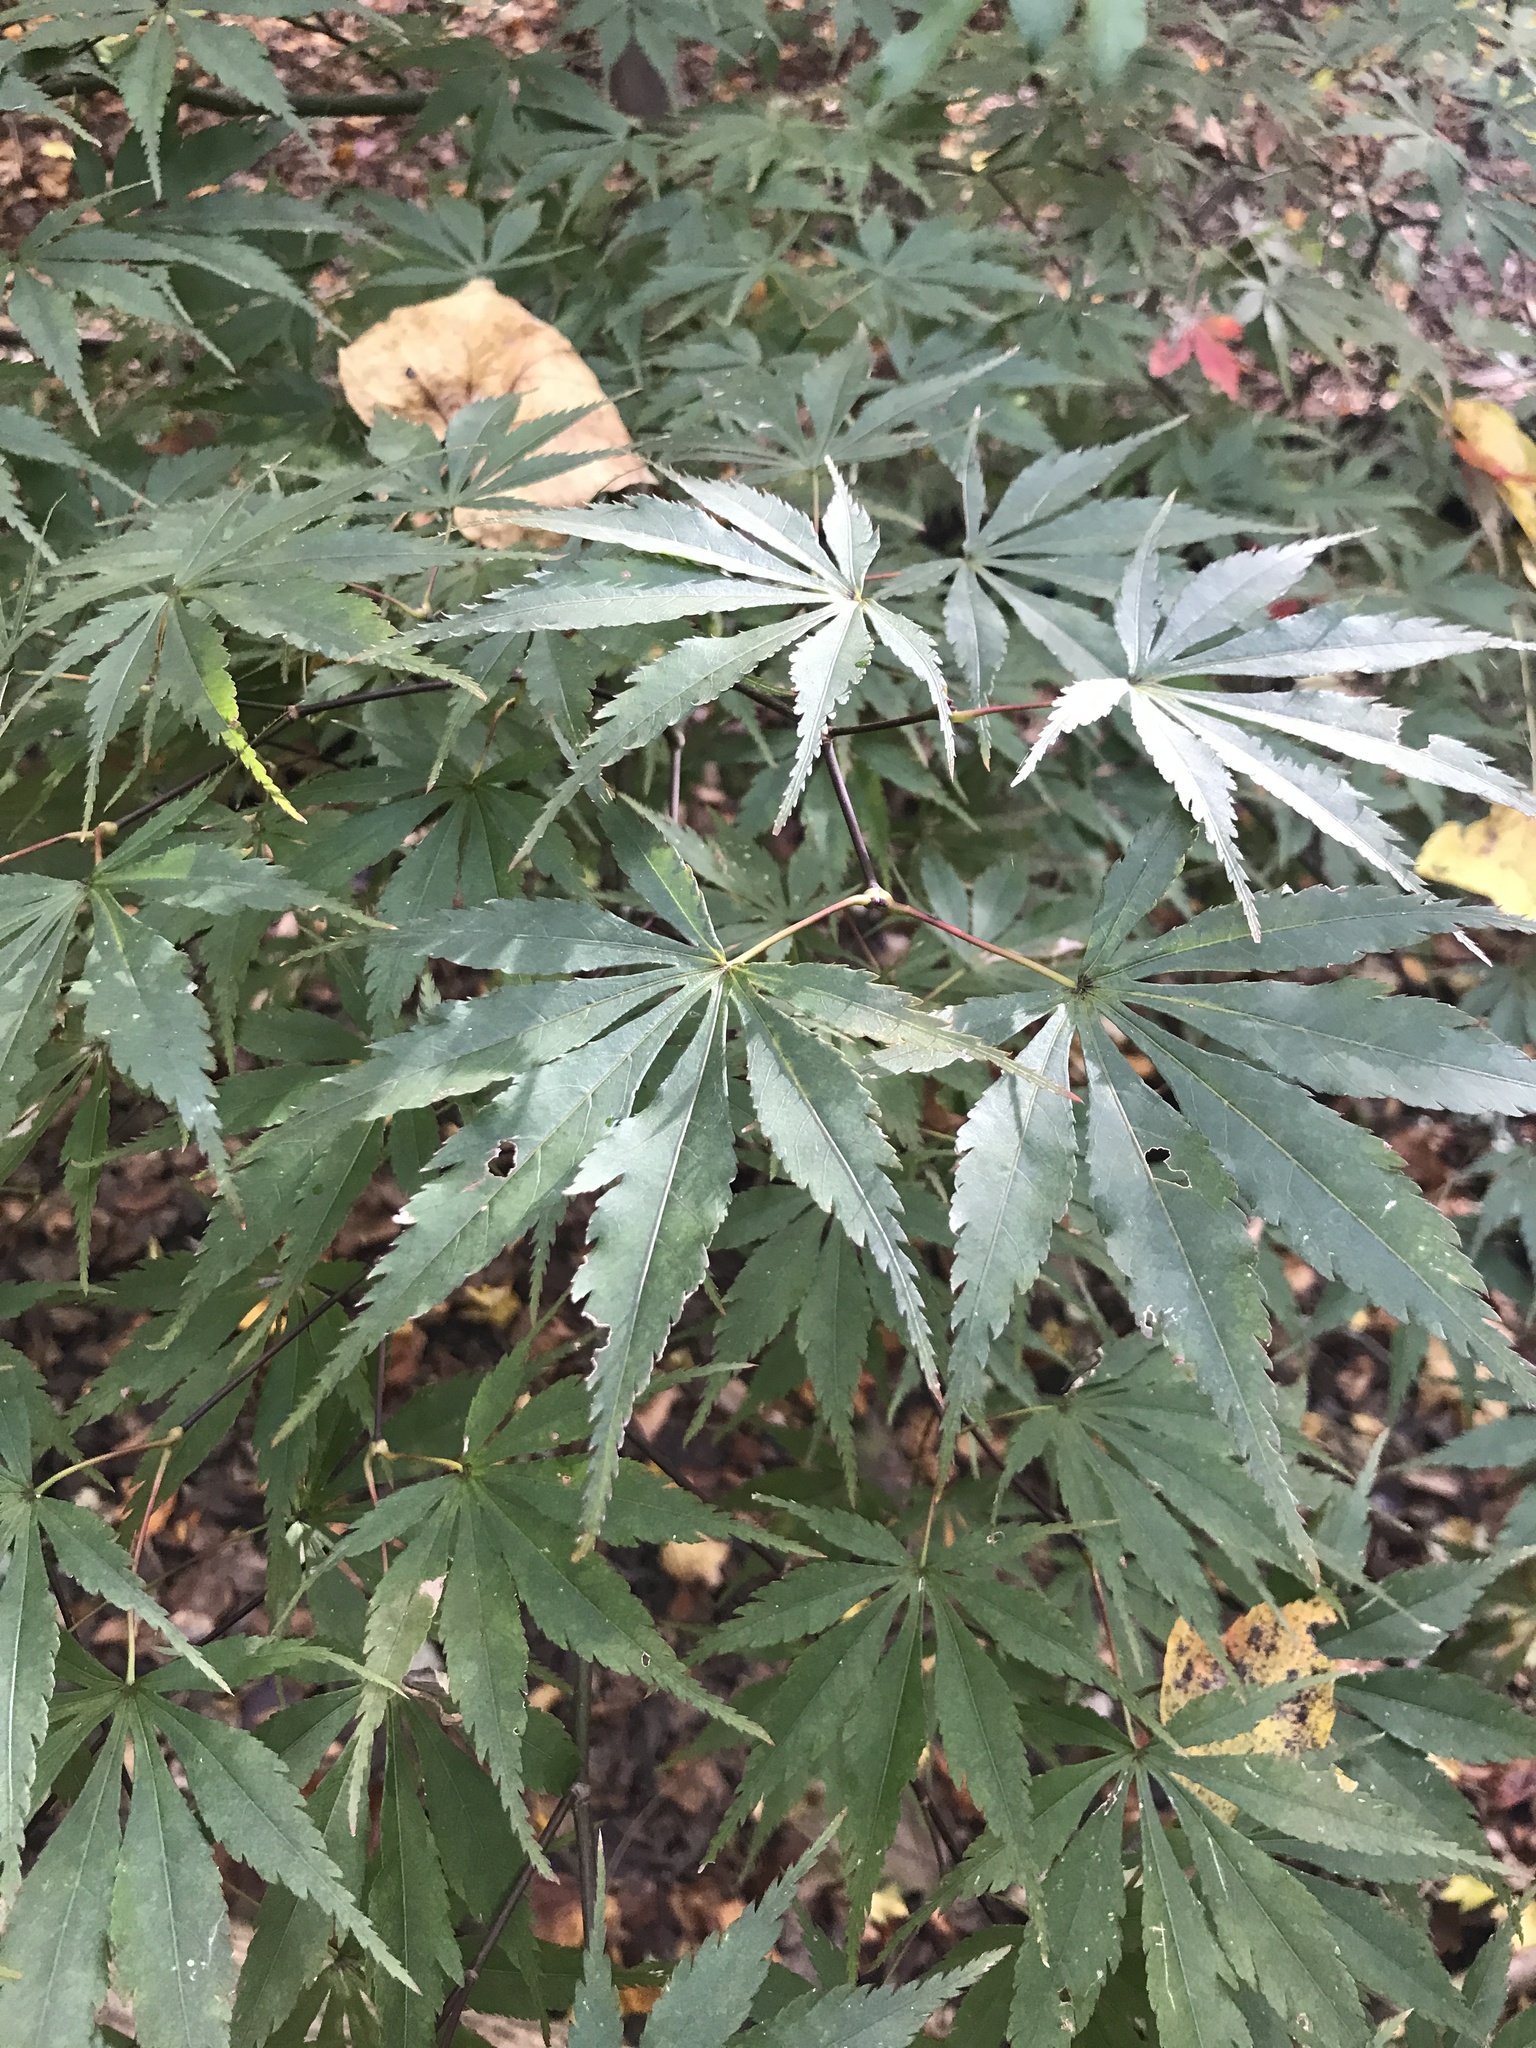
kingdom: Plantae
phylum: Tracheophyta
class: Magnoliopsida
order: Sapindales
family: Sapindaceae
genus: Acer
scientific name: Acer palmatum
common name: Japanese maple
